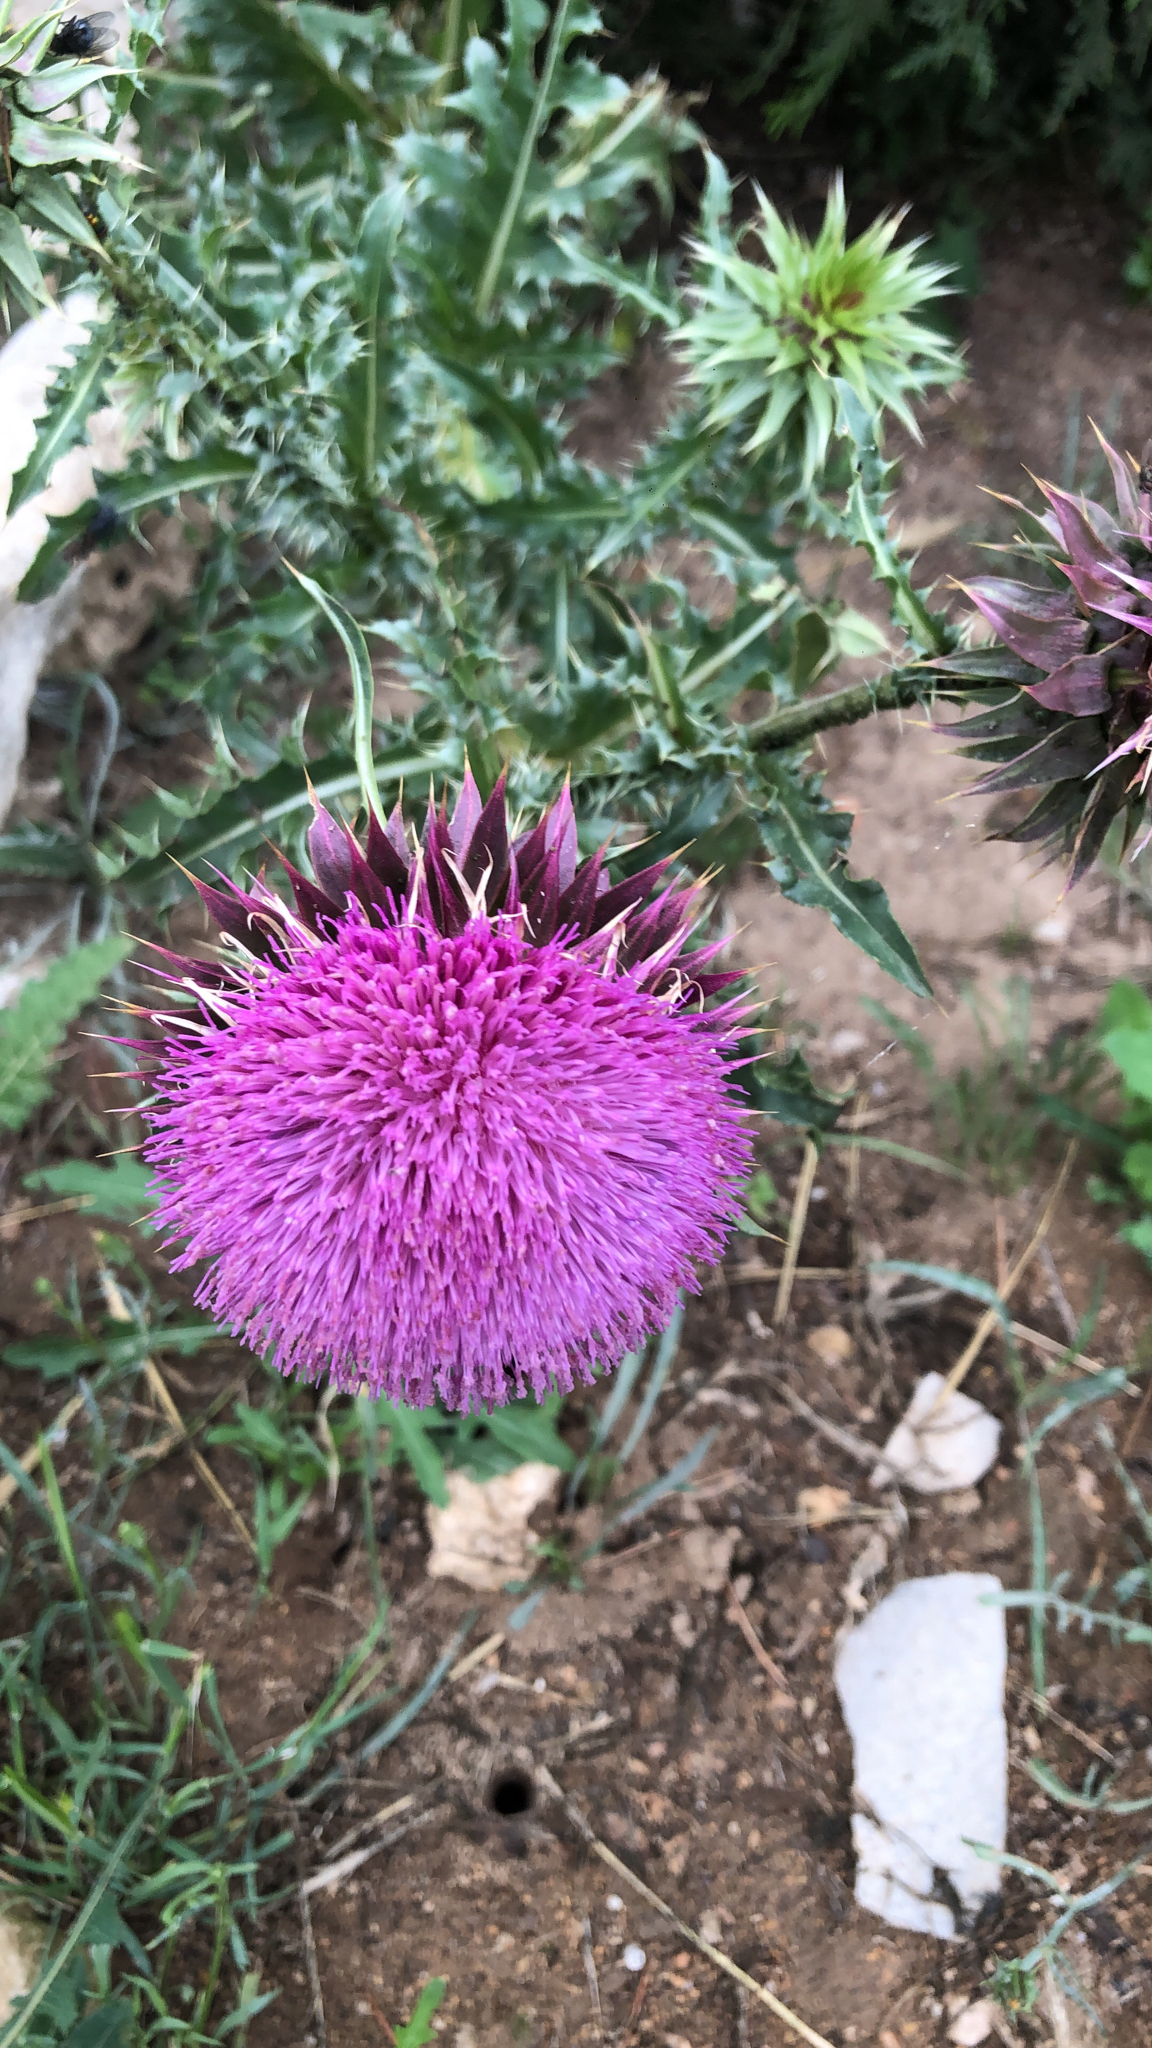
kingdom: Plantae
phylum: Tracheophyta
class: Magnoliopsida
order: Asterales
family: Asteraceae
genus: Carduus
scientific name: Carduus nutans
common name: Musk thistle
